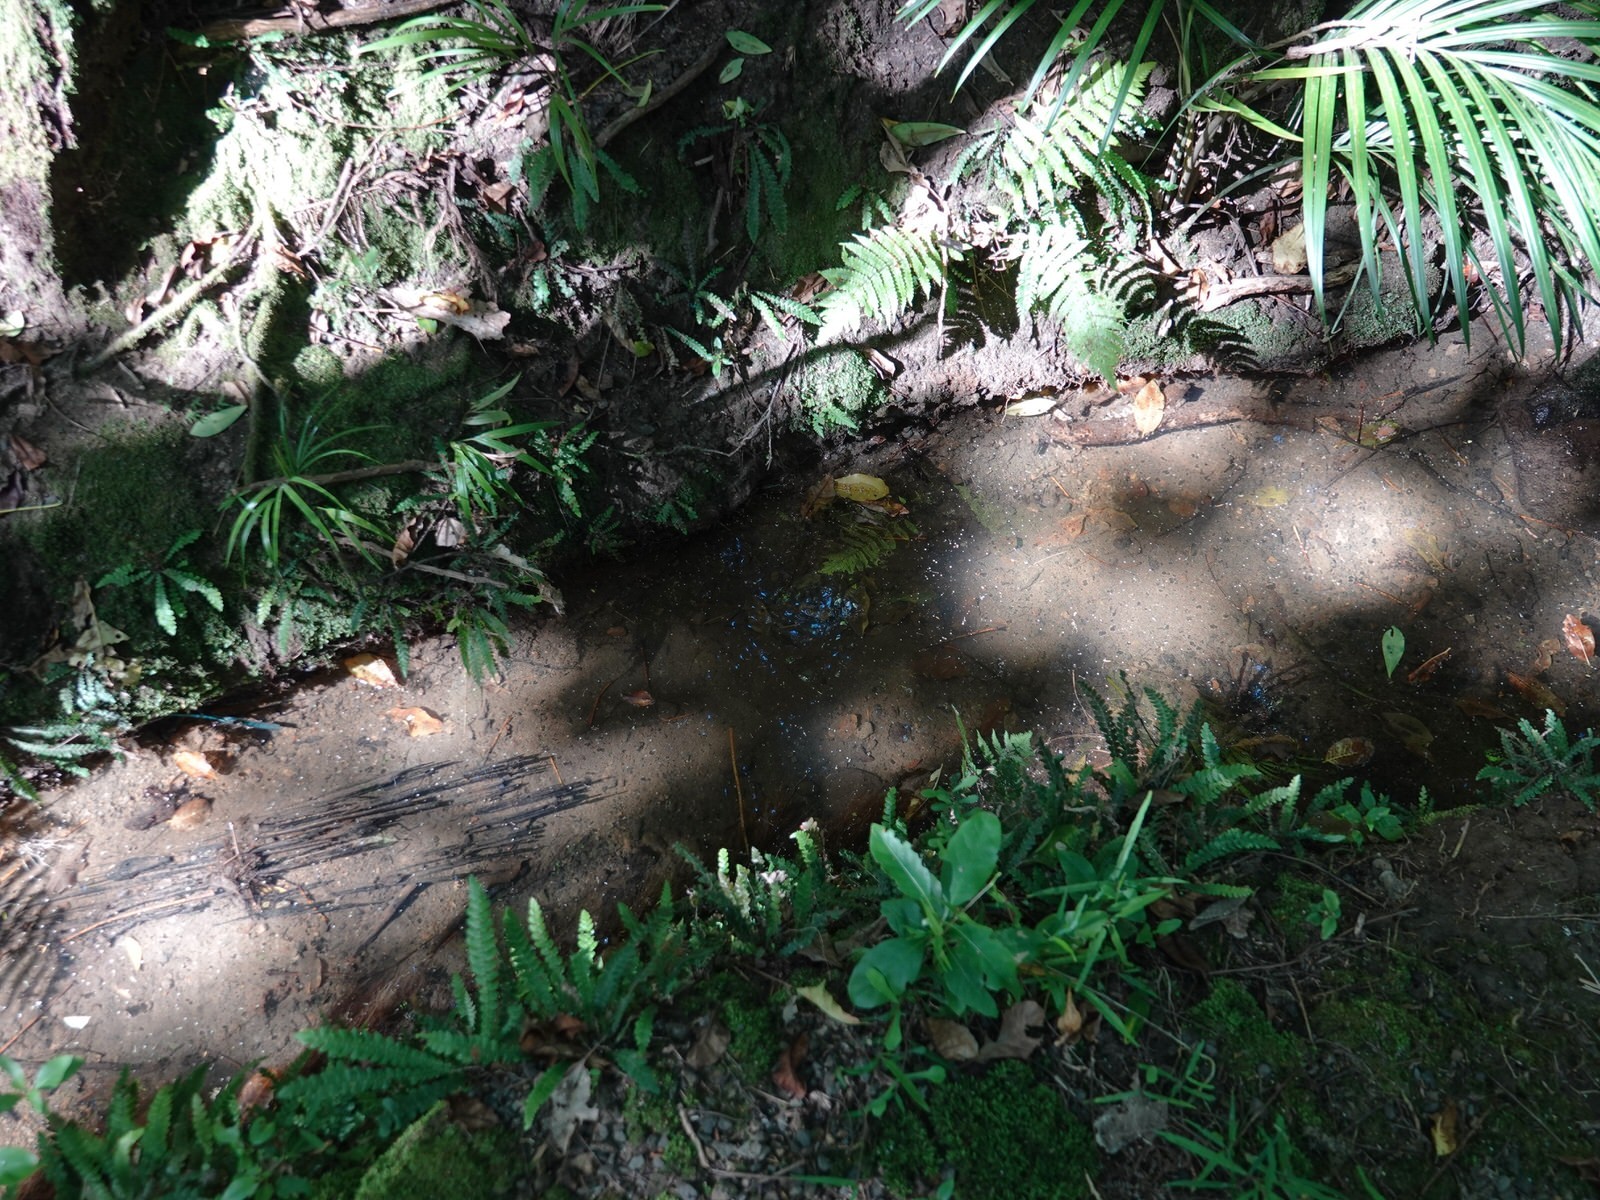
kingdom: Animalia
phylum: Chordata
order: Osmeriformes
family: Galaxiidae
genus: Galaxias
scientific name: Galaxias fasciatus
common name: Banded kokopu
